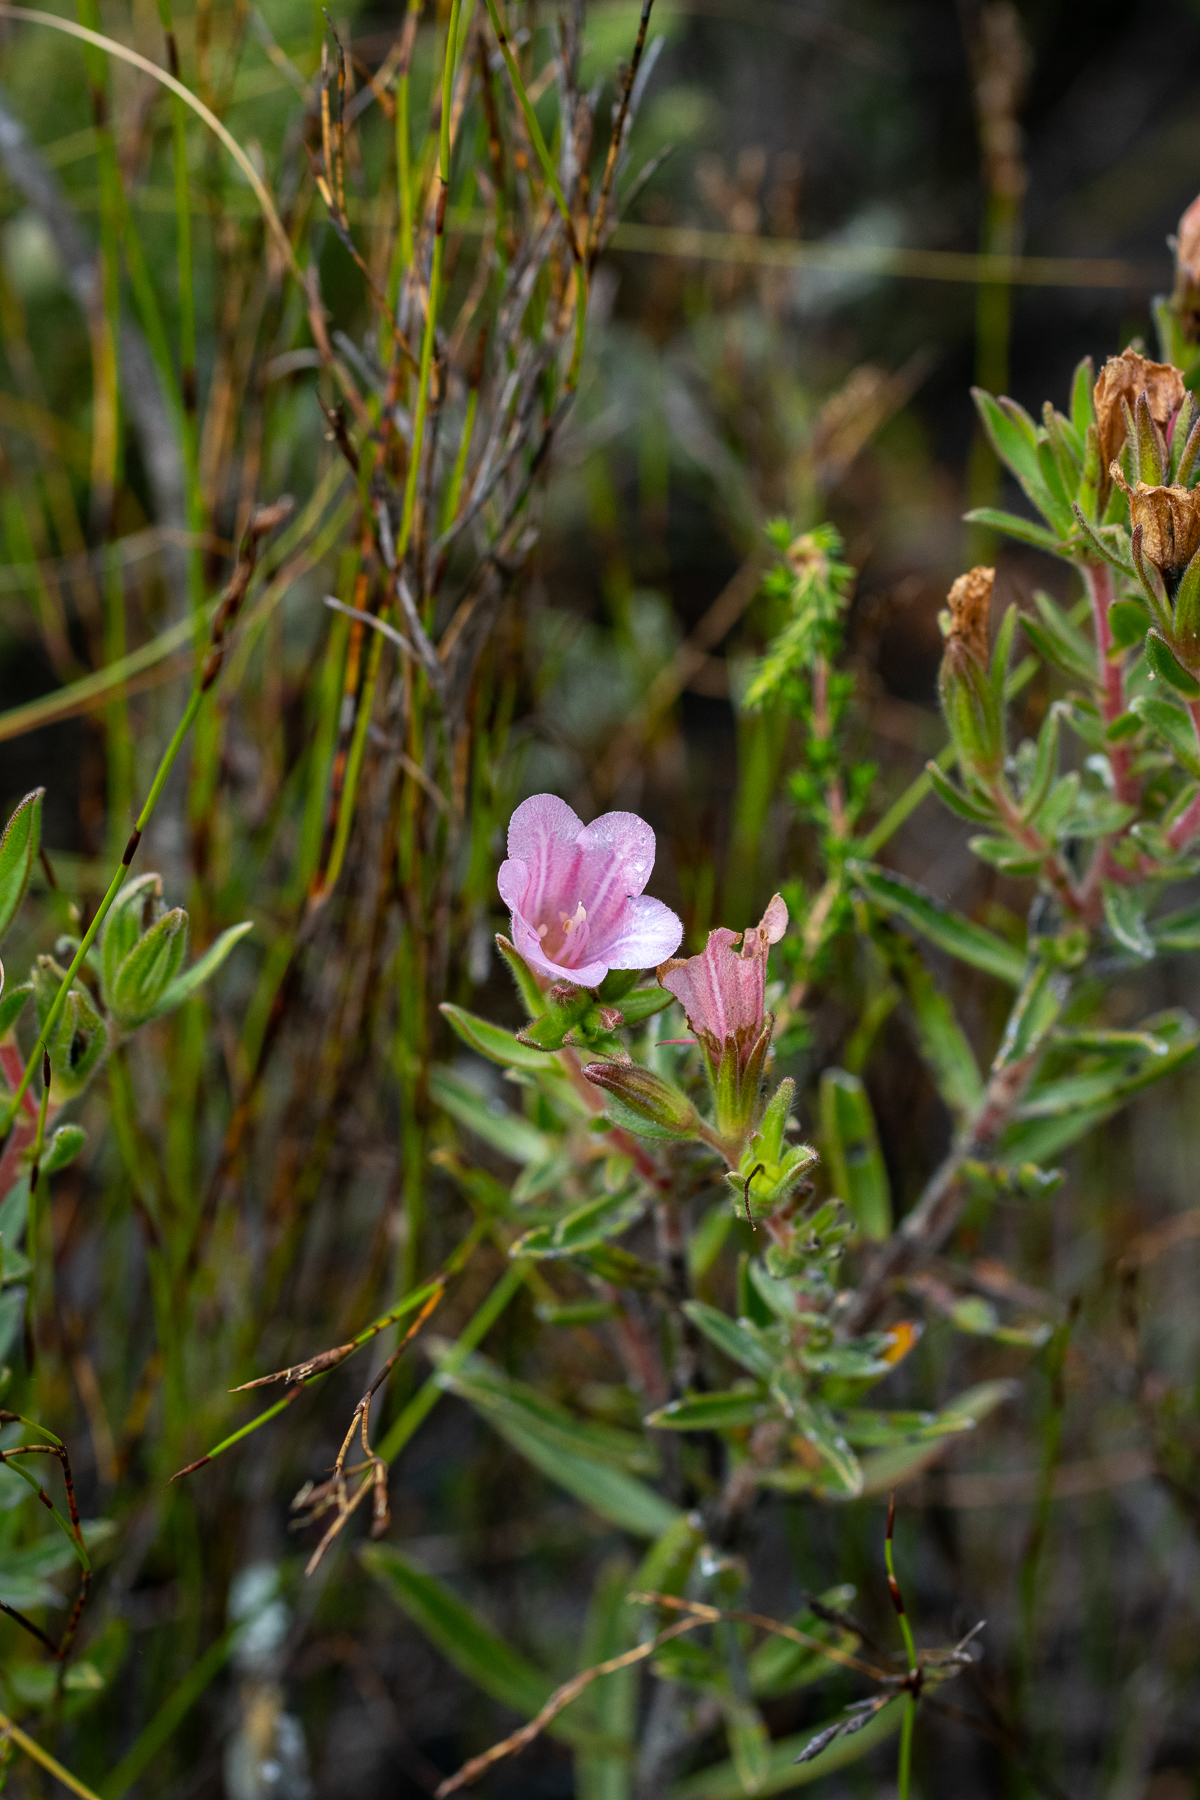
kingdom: Plantae
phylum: Tracheophyta
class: Magnoliopsida
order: Boraginales
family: Boraginaceae
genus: Lobostemon
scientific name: Lobostemon fruticosus
